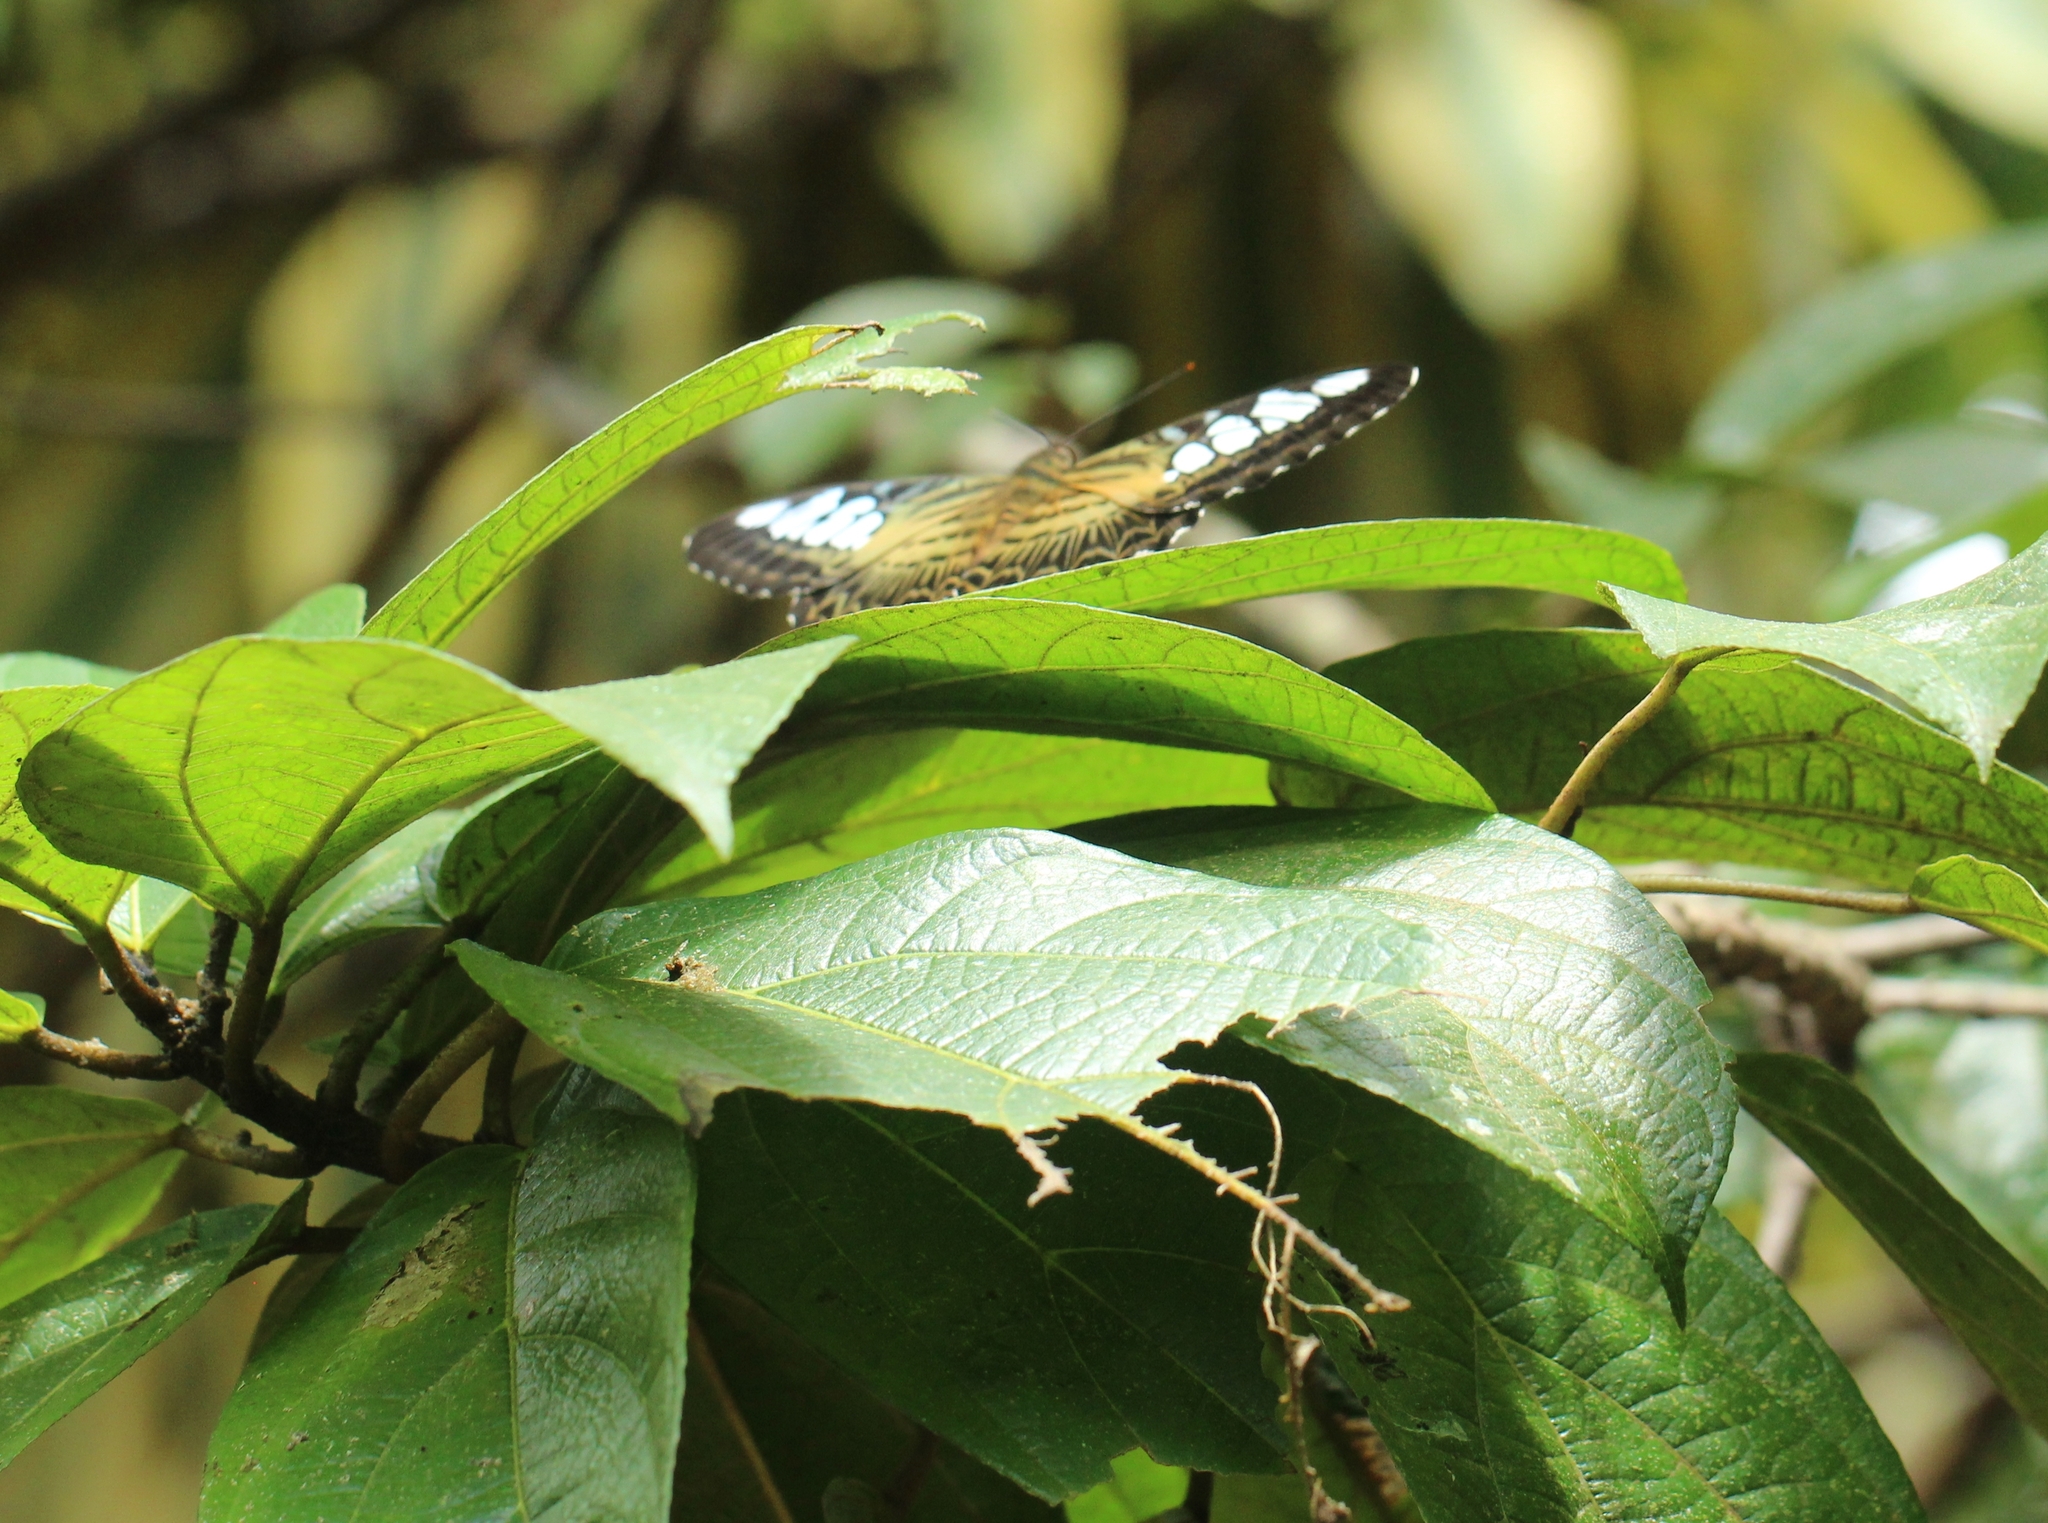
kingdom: Animalia
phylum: Arthropoda
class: Insecta
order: Lepidoptera
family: Nymphalidae
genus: Kallima
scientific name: Kallima sylvia
